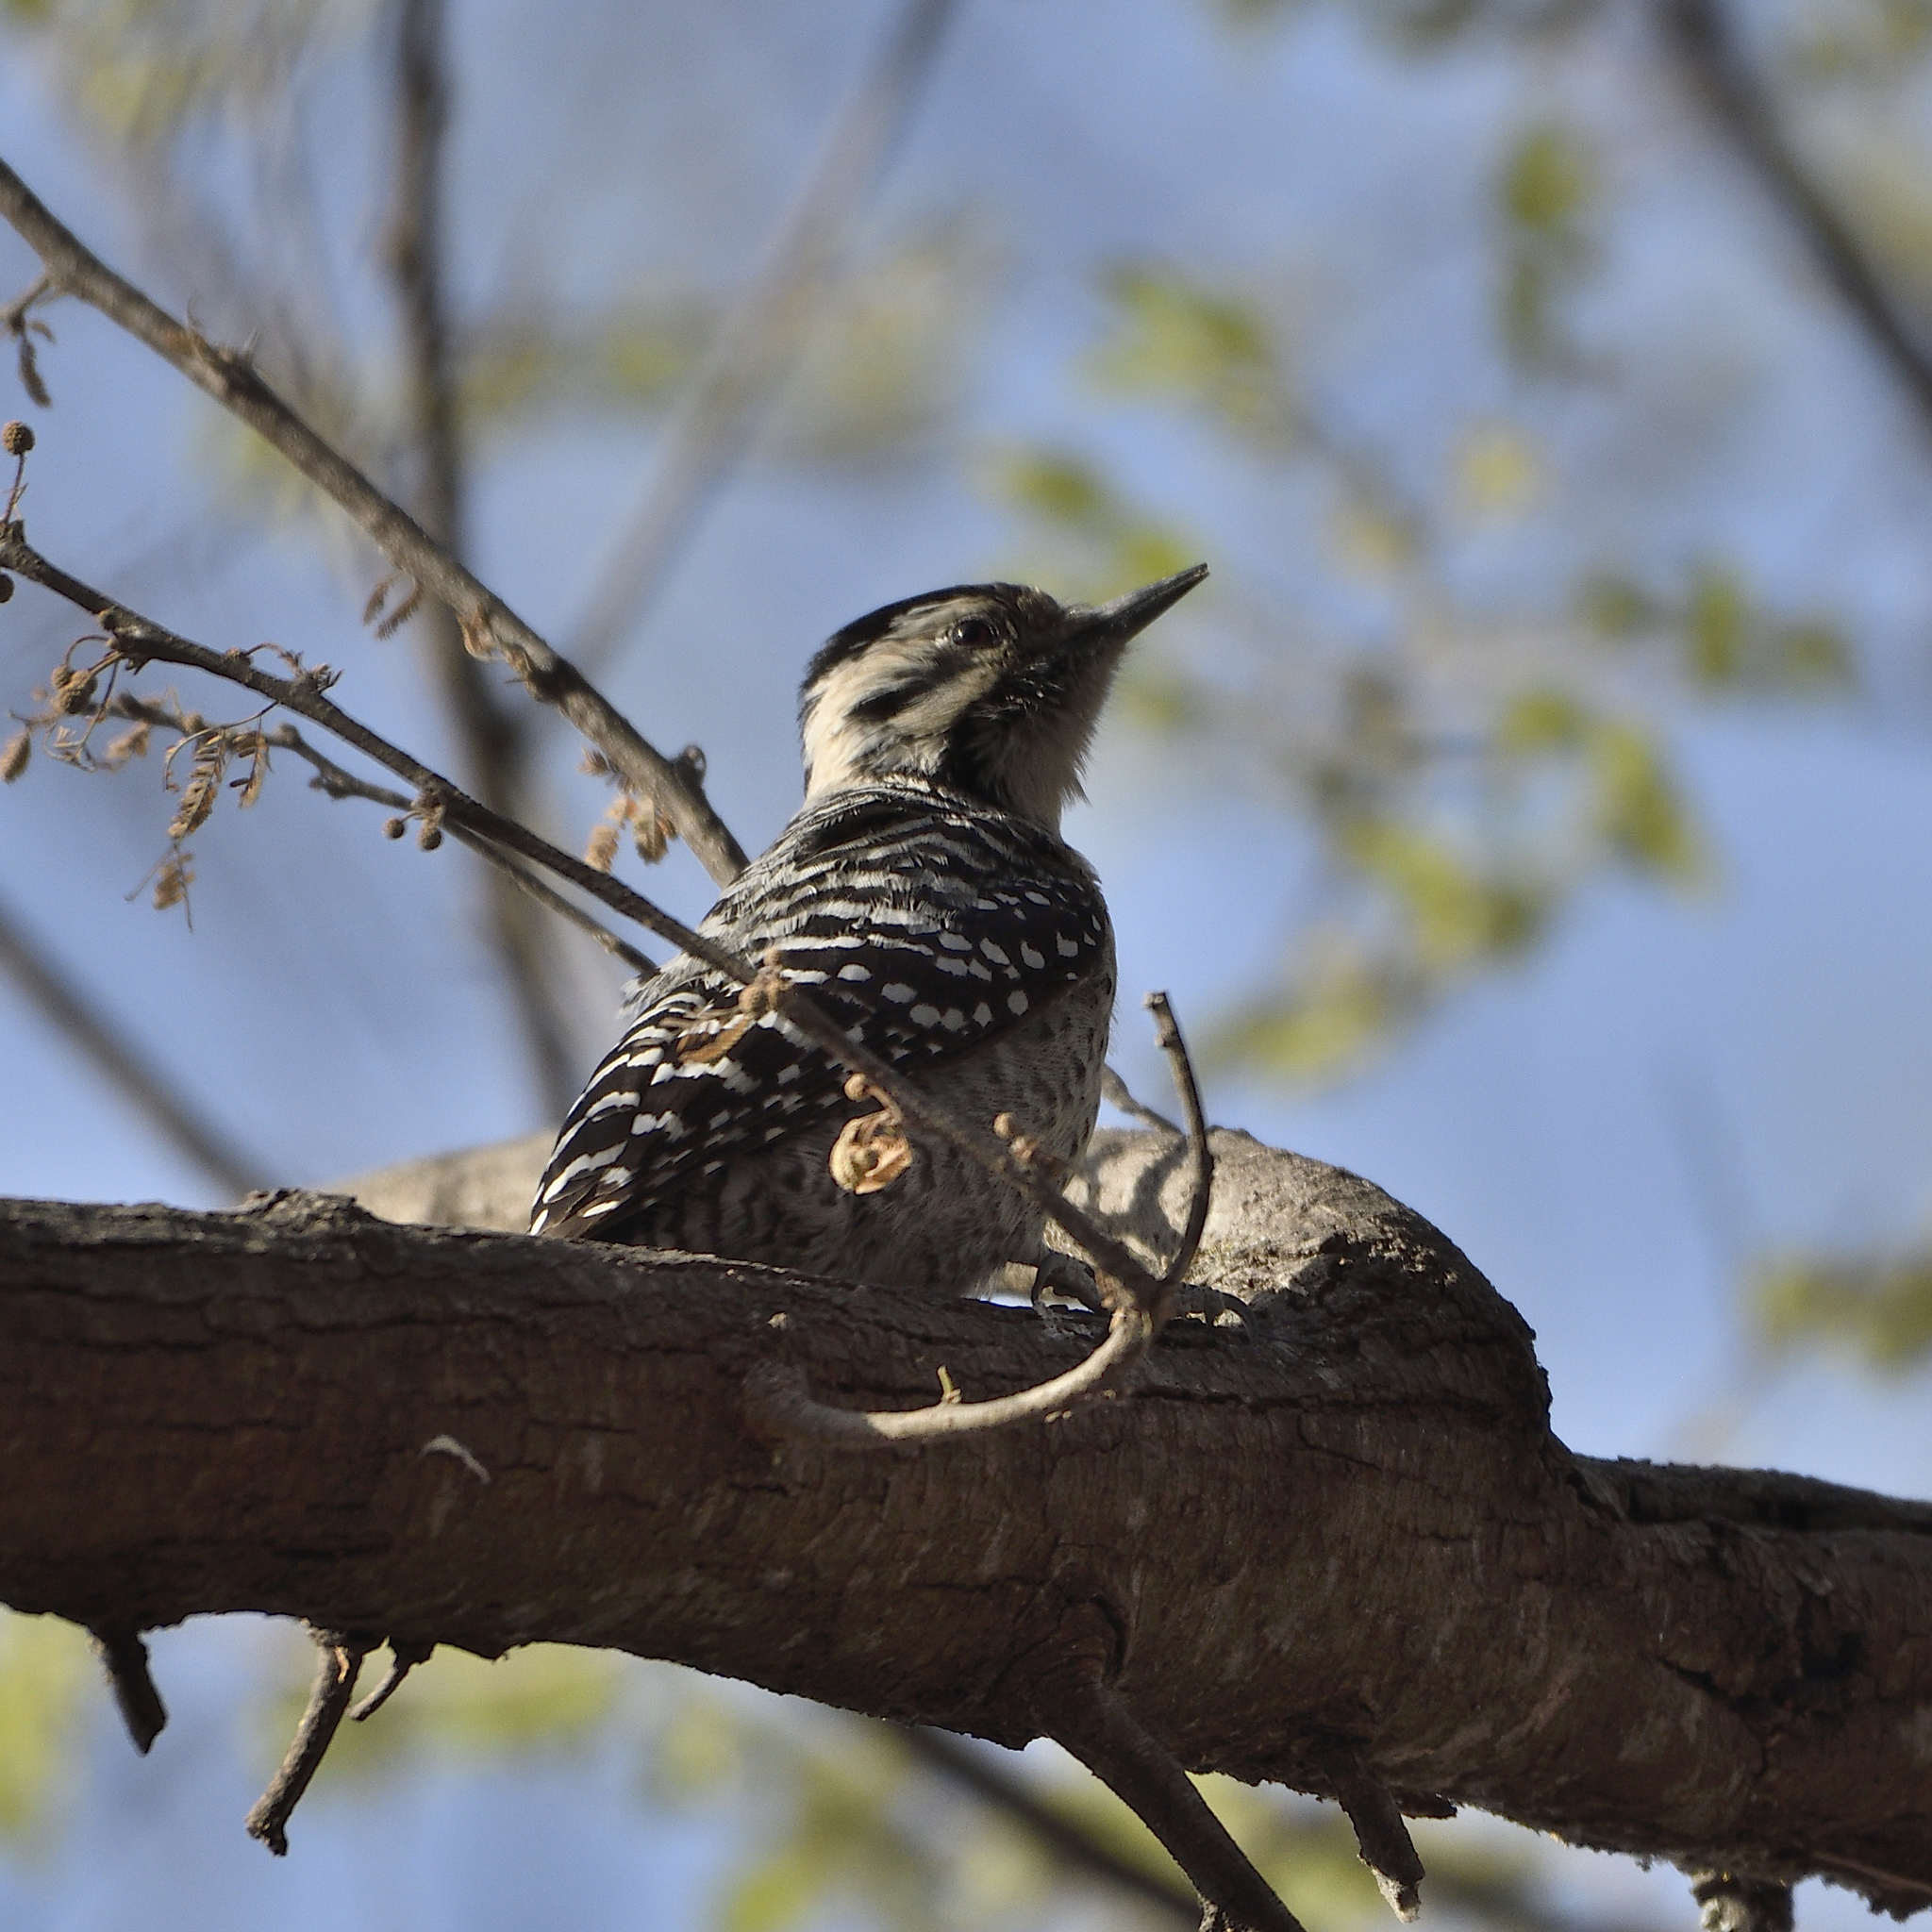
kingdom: Animalia
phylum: Chordata
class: Aves
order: Piciformes
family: Picidae
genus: Dryobates
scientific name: Dryobates scalaris
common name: Ladder-backed woodpecker
